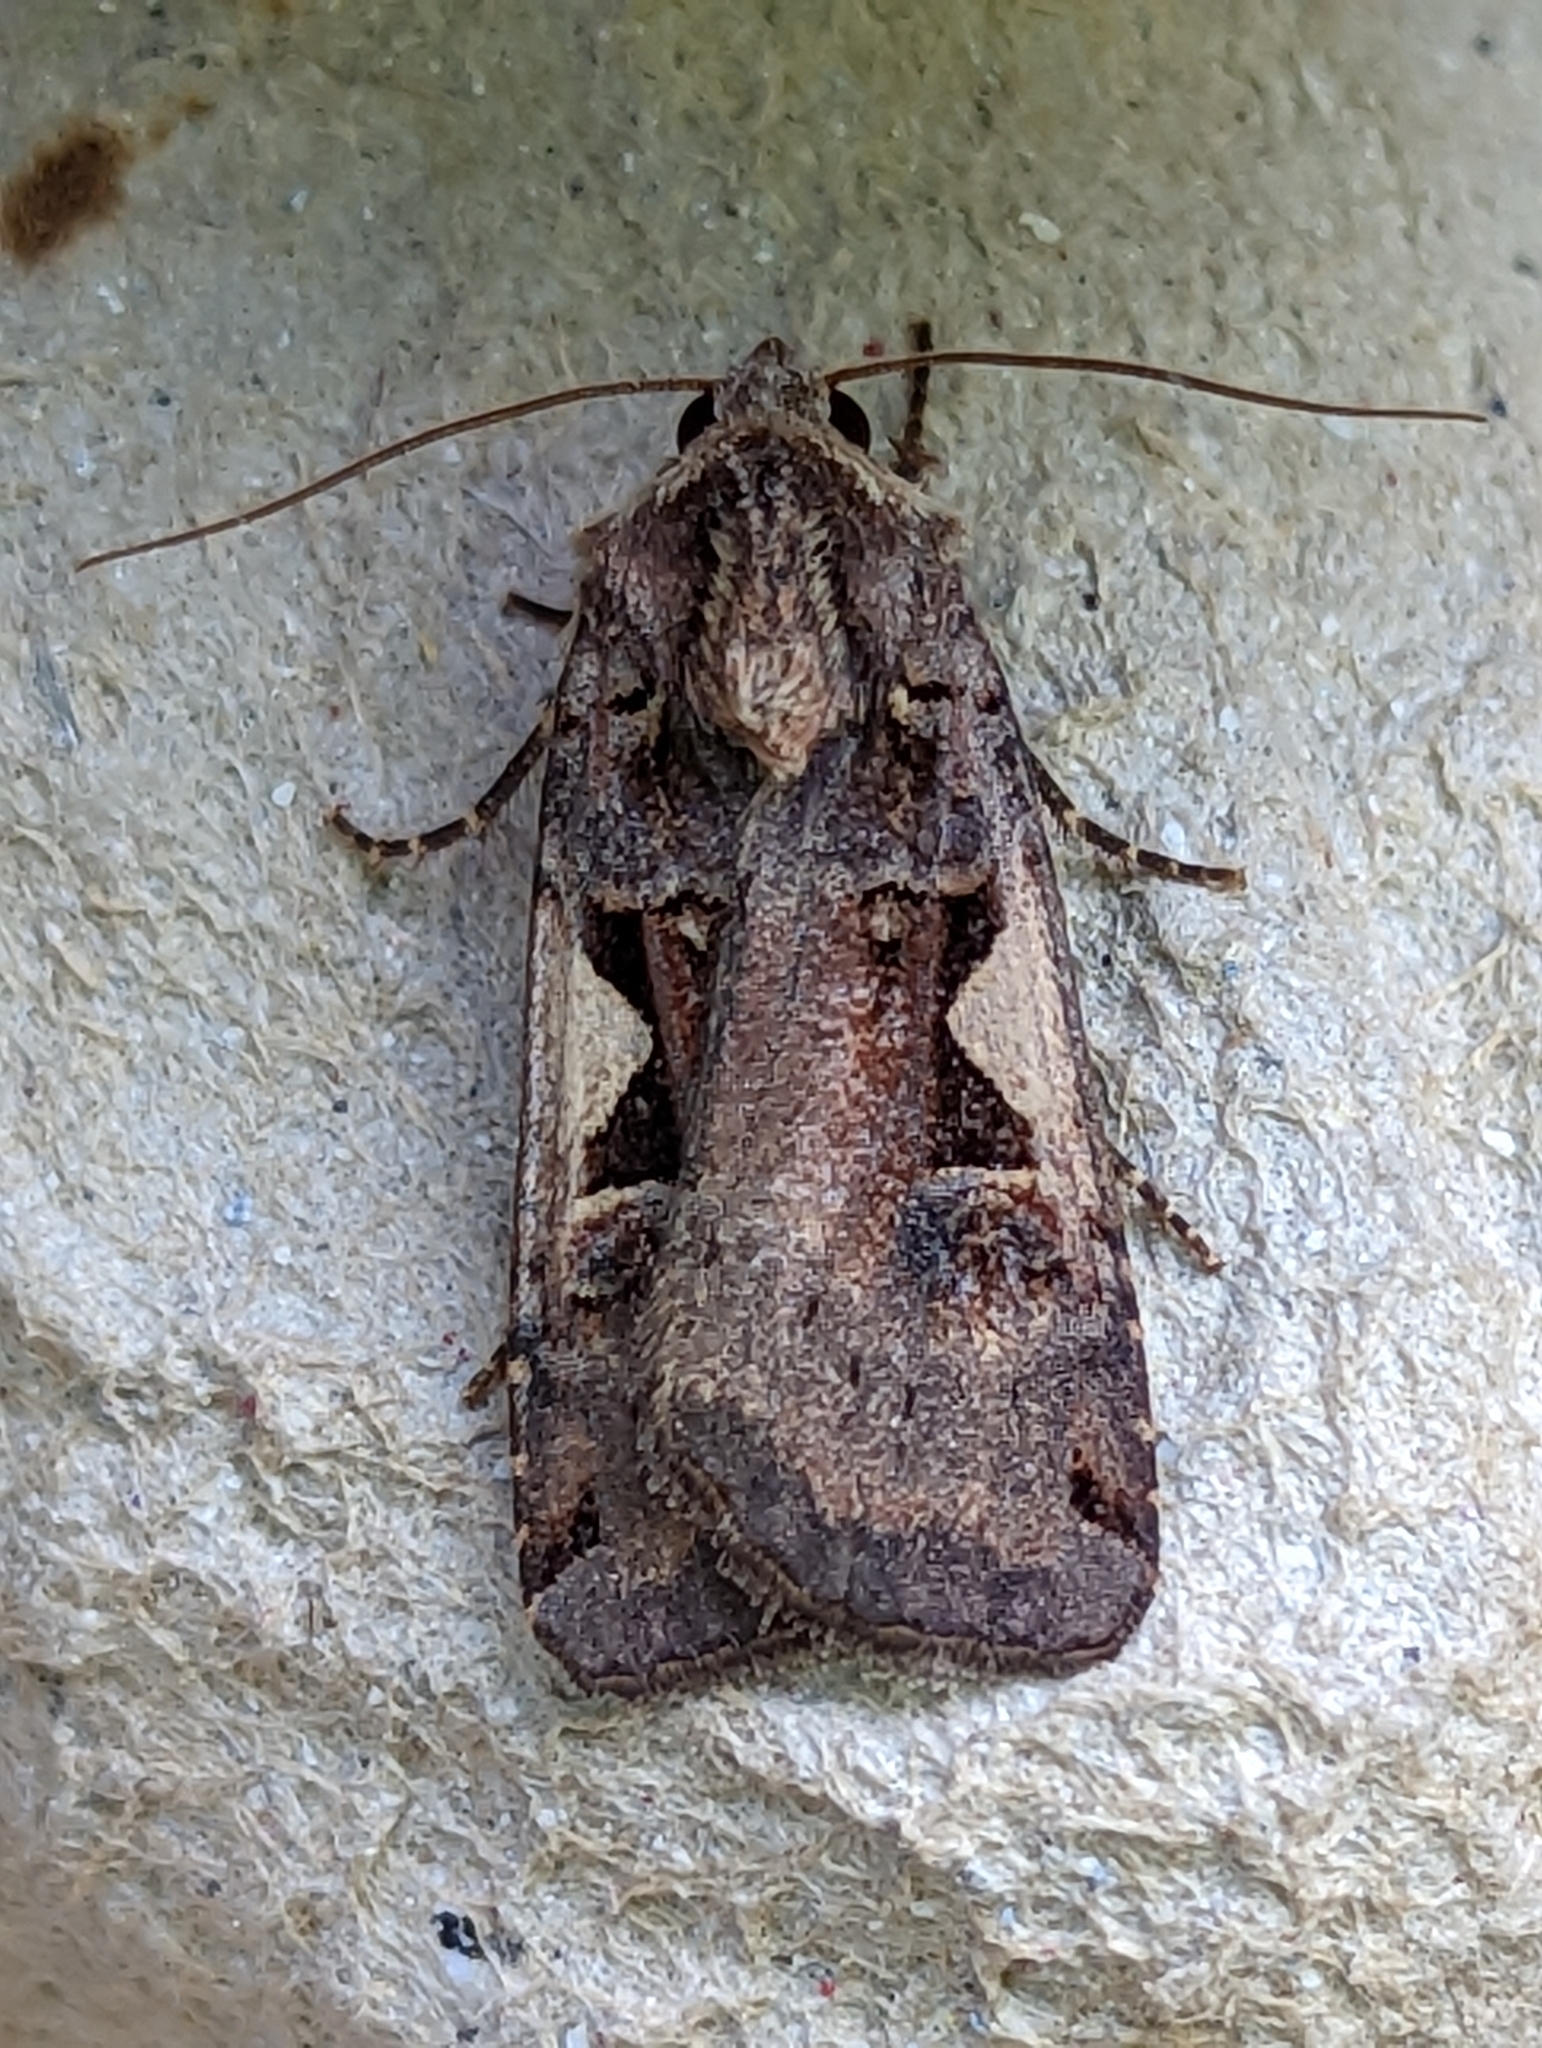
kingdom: Animalia
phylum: Arthropoda
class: Insecta
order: Lepidoptera
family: Noctuidae
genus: Xestia
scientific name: Xestia c-nigrum
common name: Setaceous hebrew character
